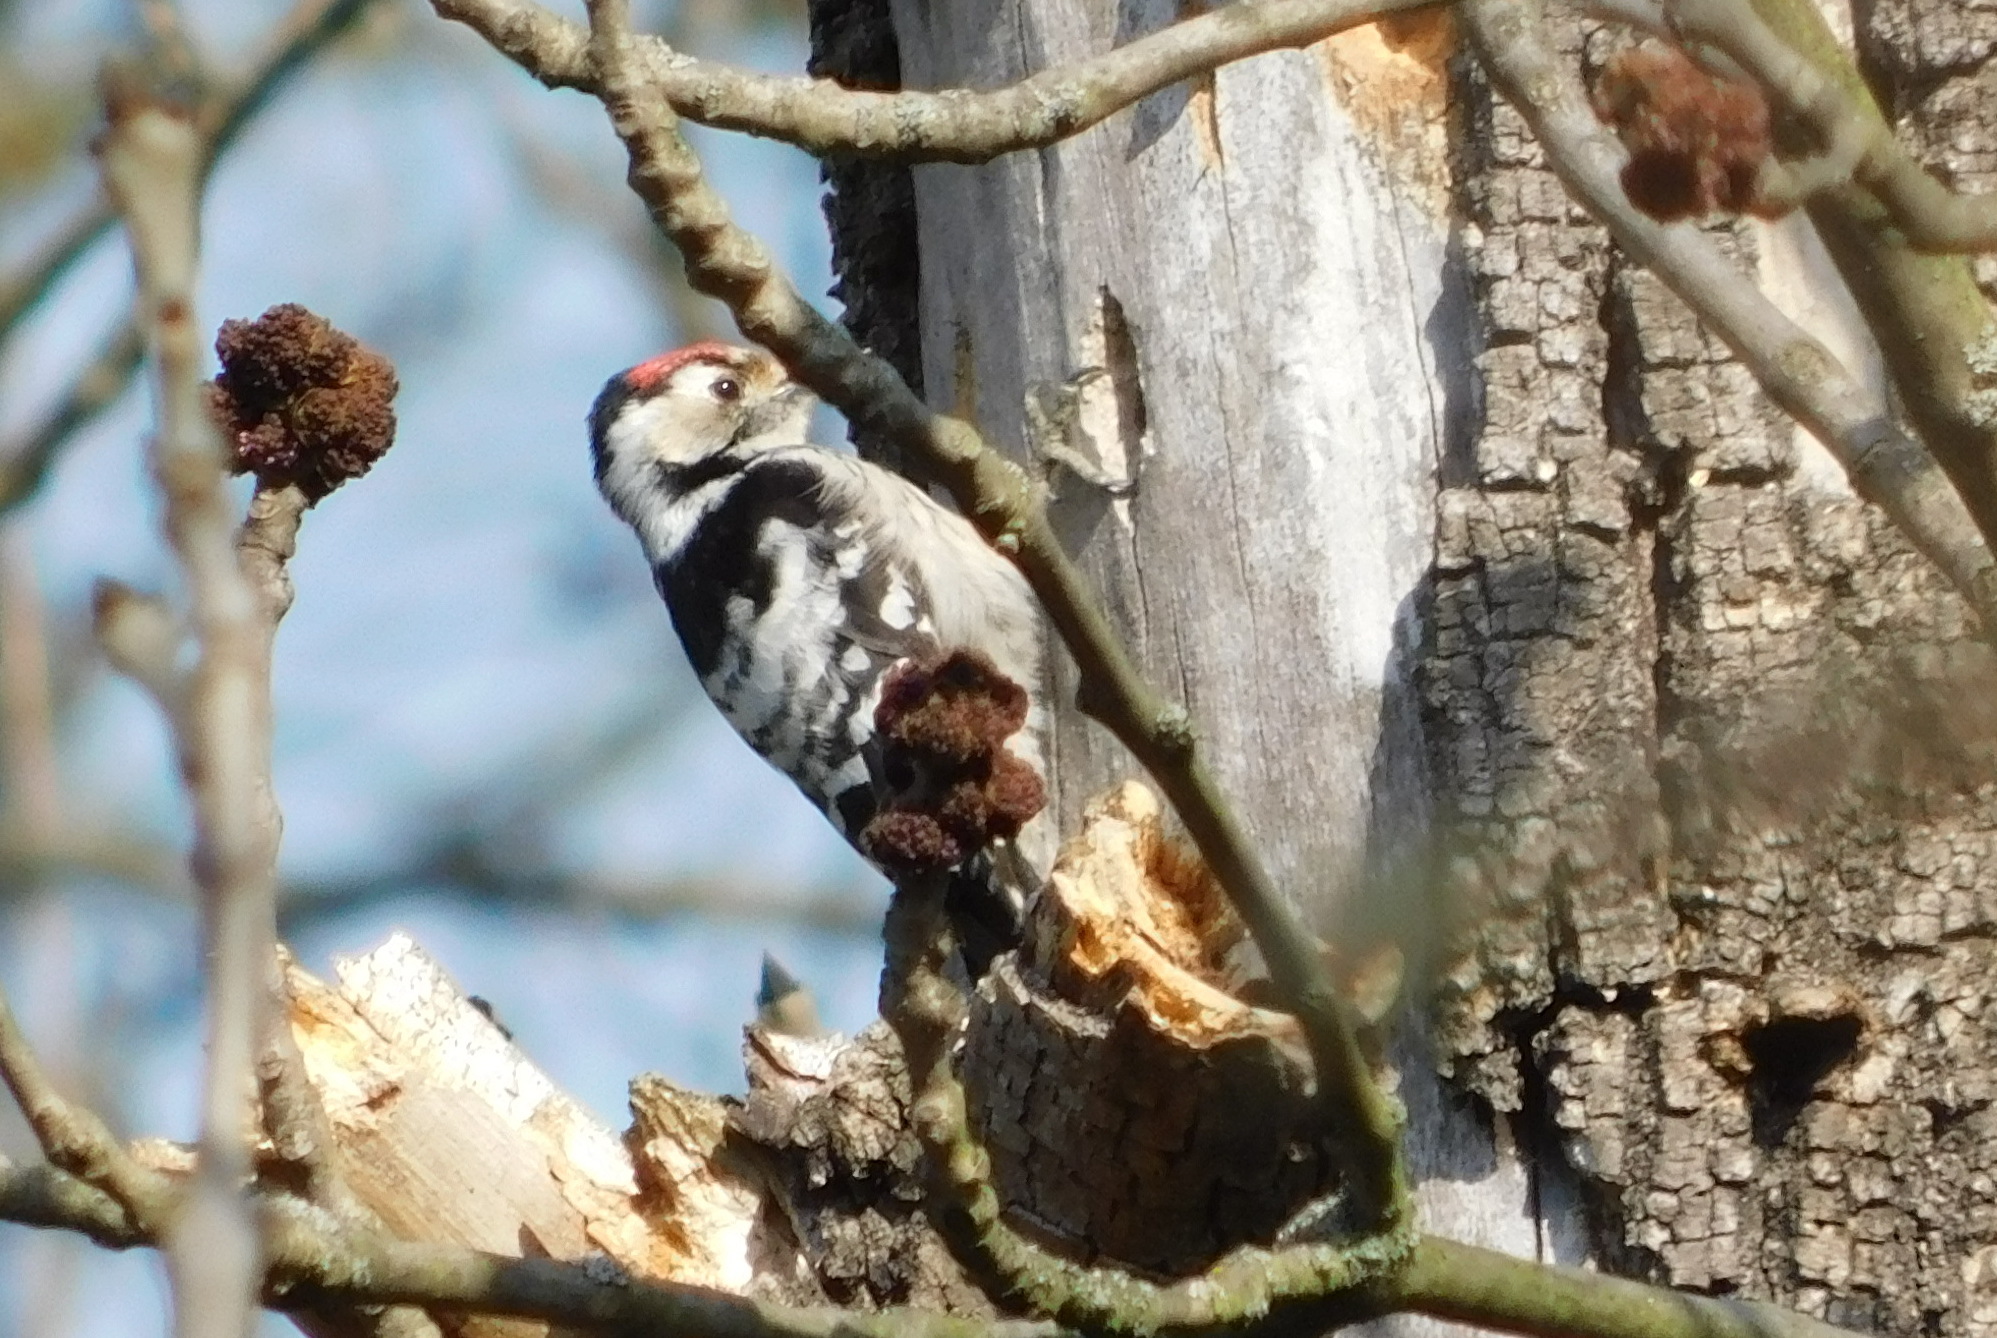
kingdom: Animalia
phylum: Chordata
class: Aves
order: Piciformes
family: Picidae
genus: Dryobates
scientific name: Dryobates minor
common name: Lesser spotted woodpecker
